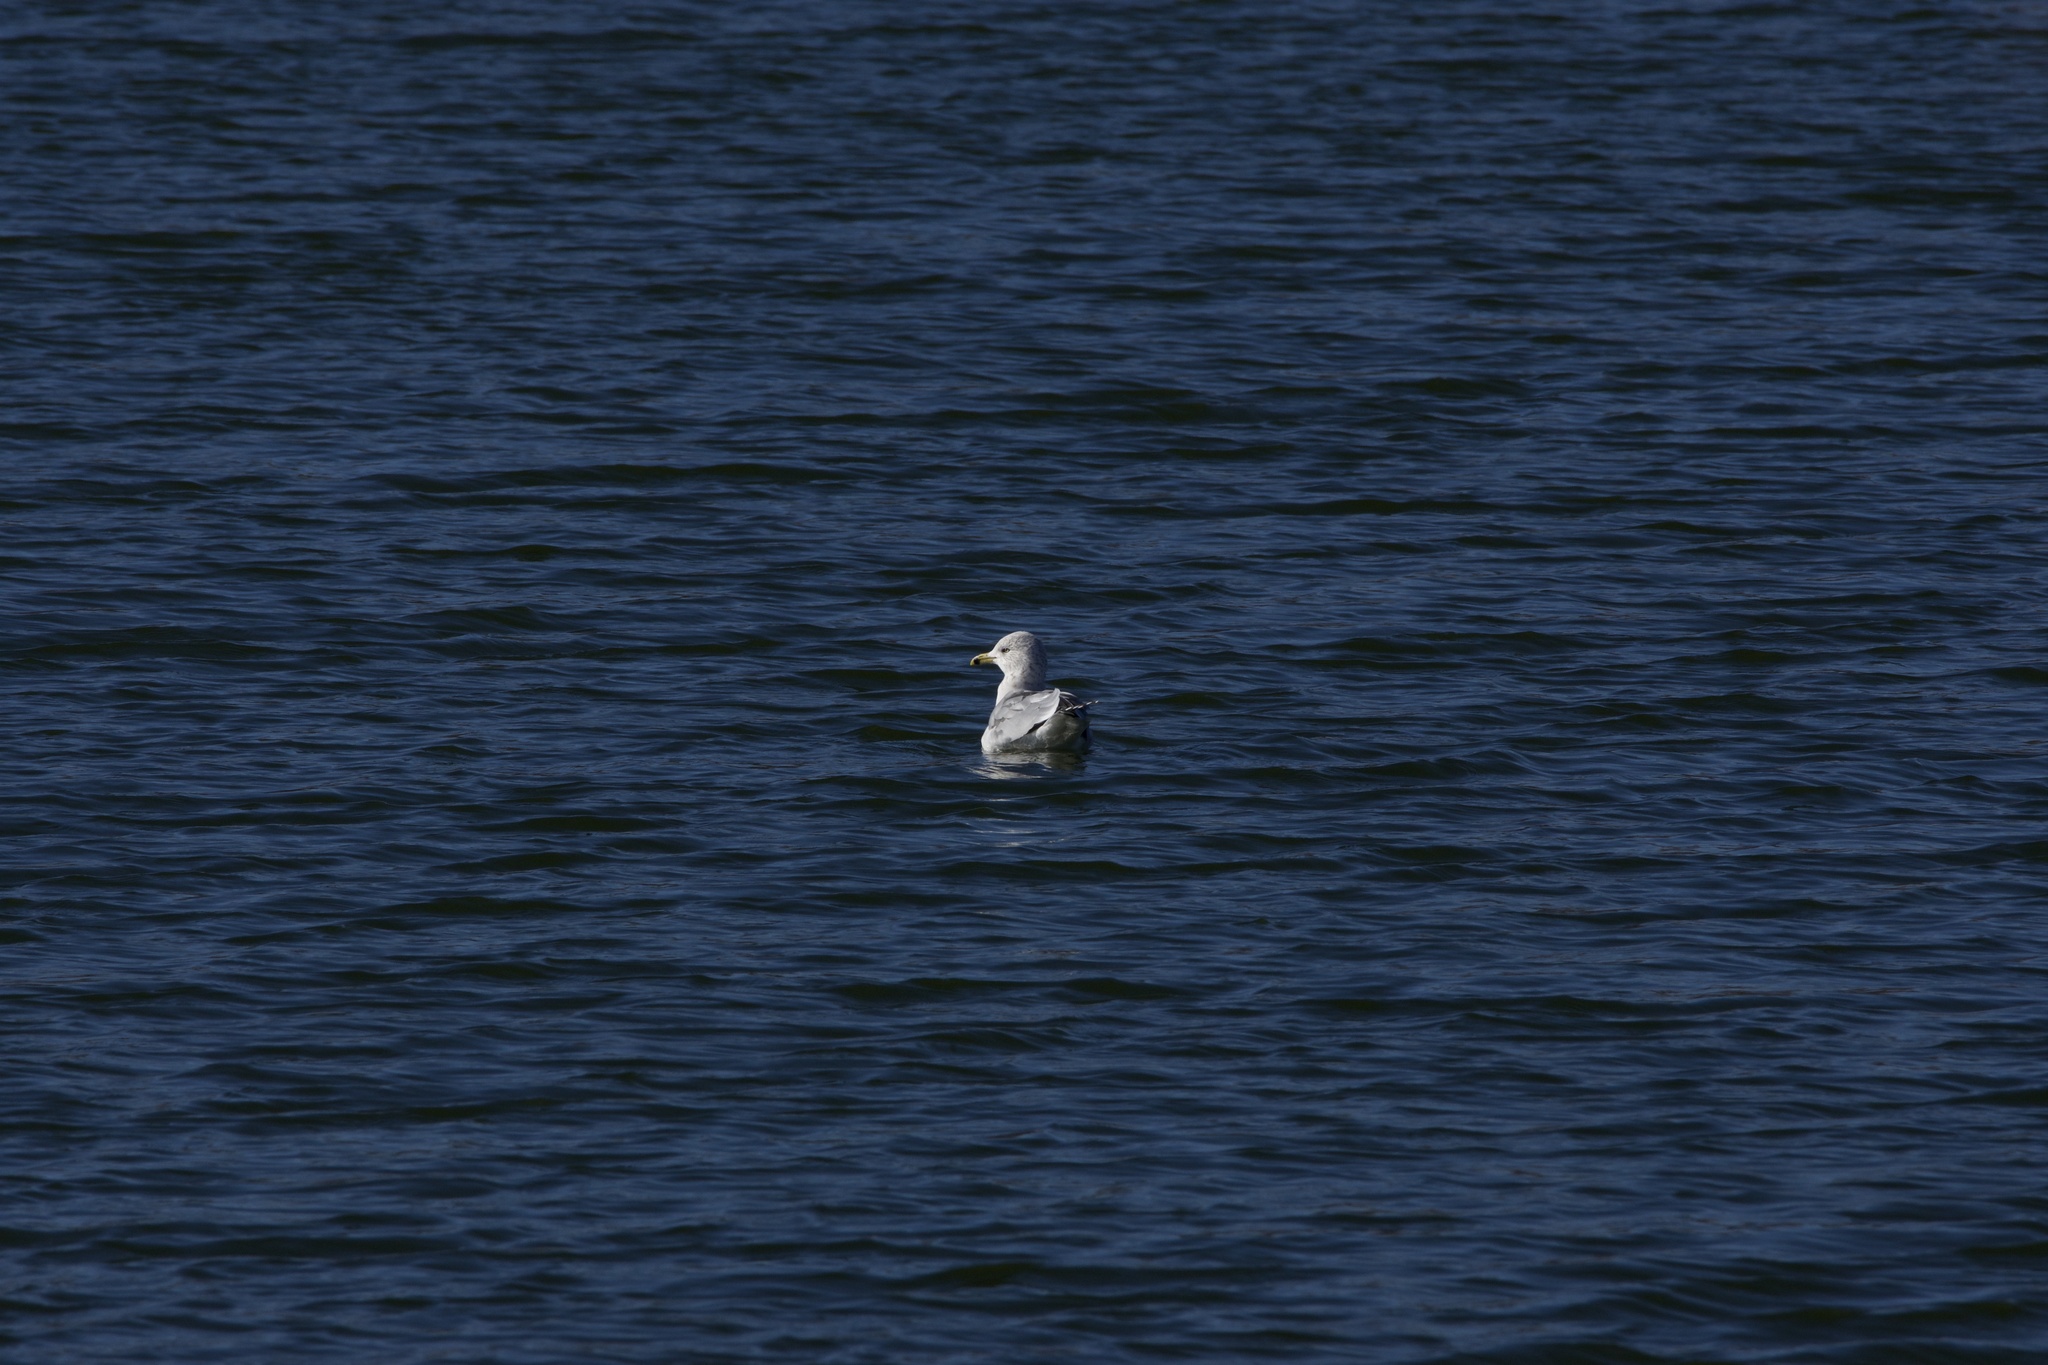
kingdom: Animalia
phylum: Chordata
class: Aves
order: Charadriiformes
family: Laridae
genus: Larus
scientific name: Larus delawarensis
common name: Ring-billed gull
